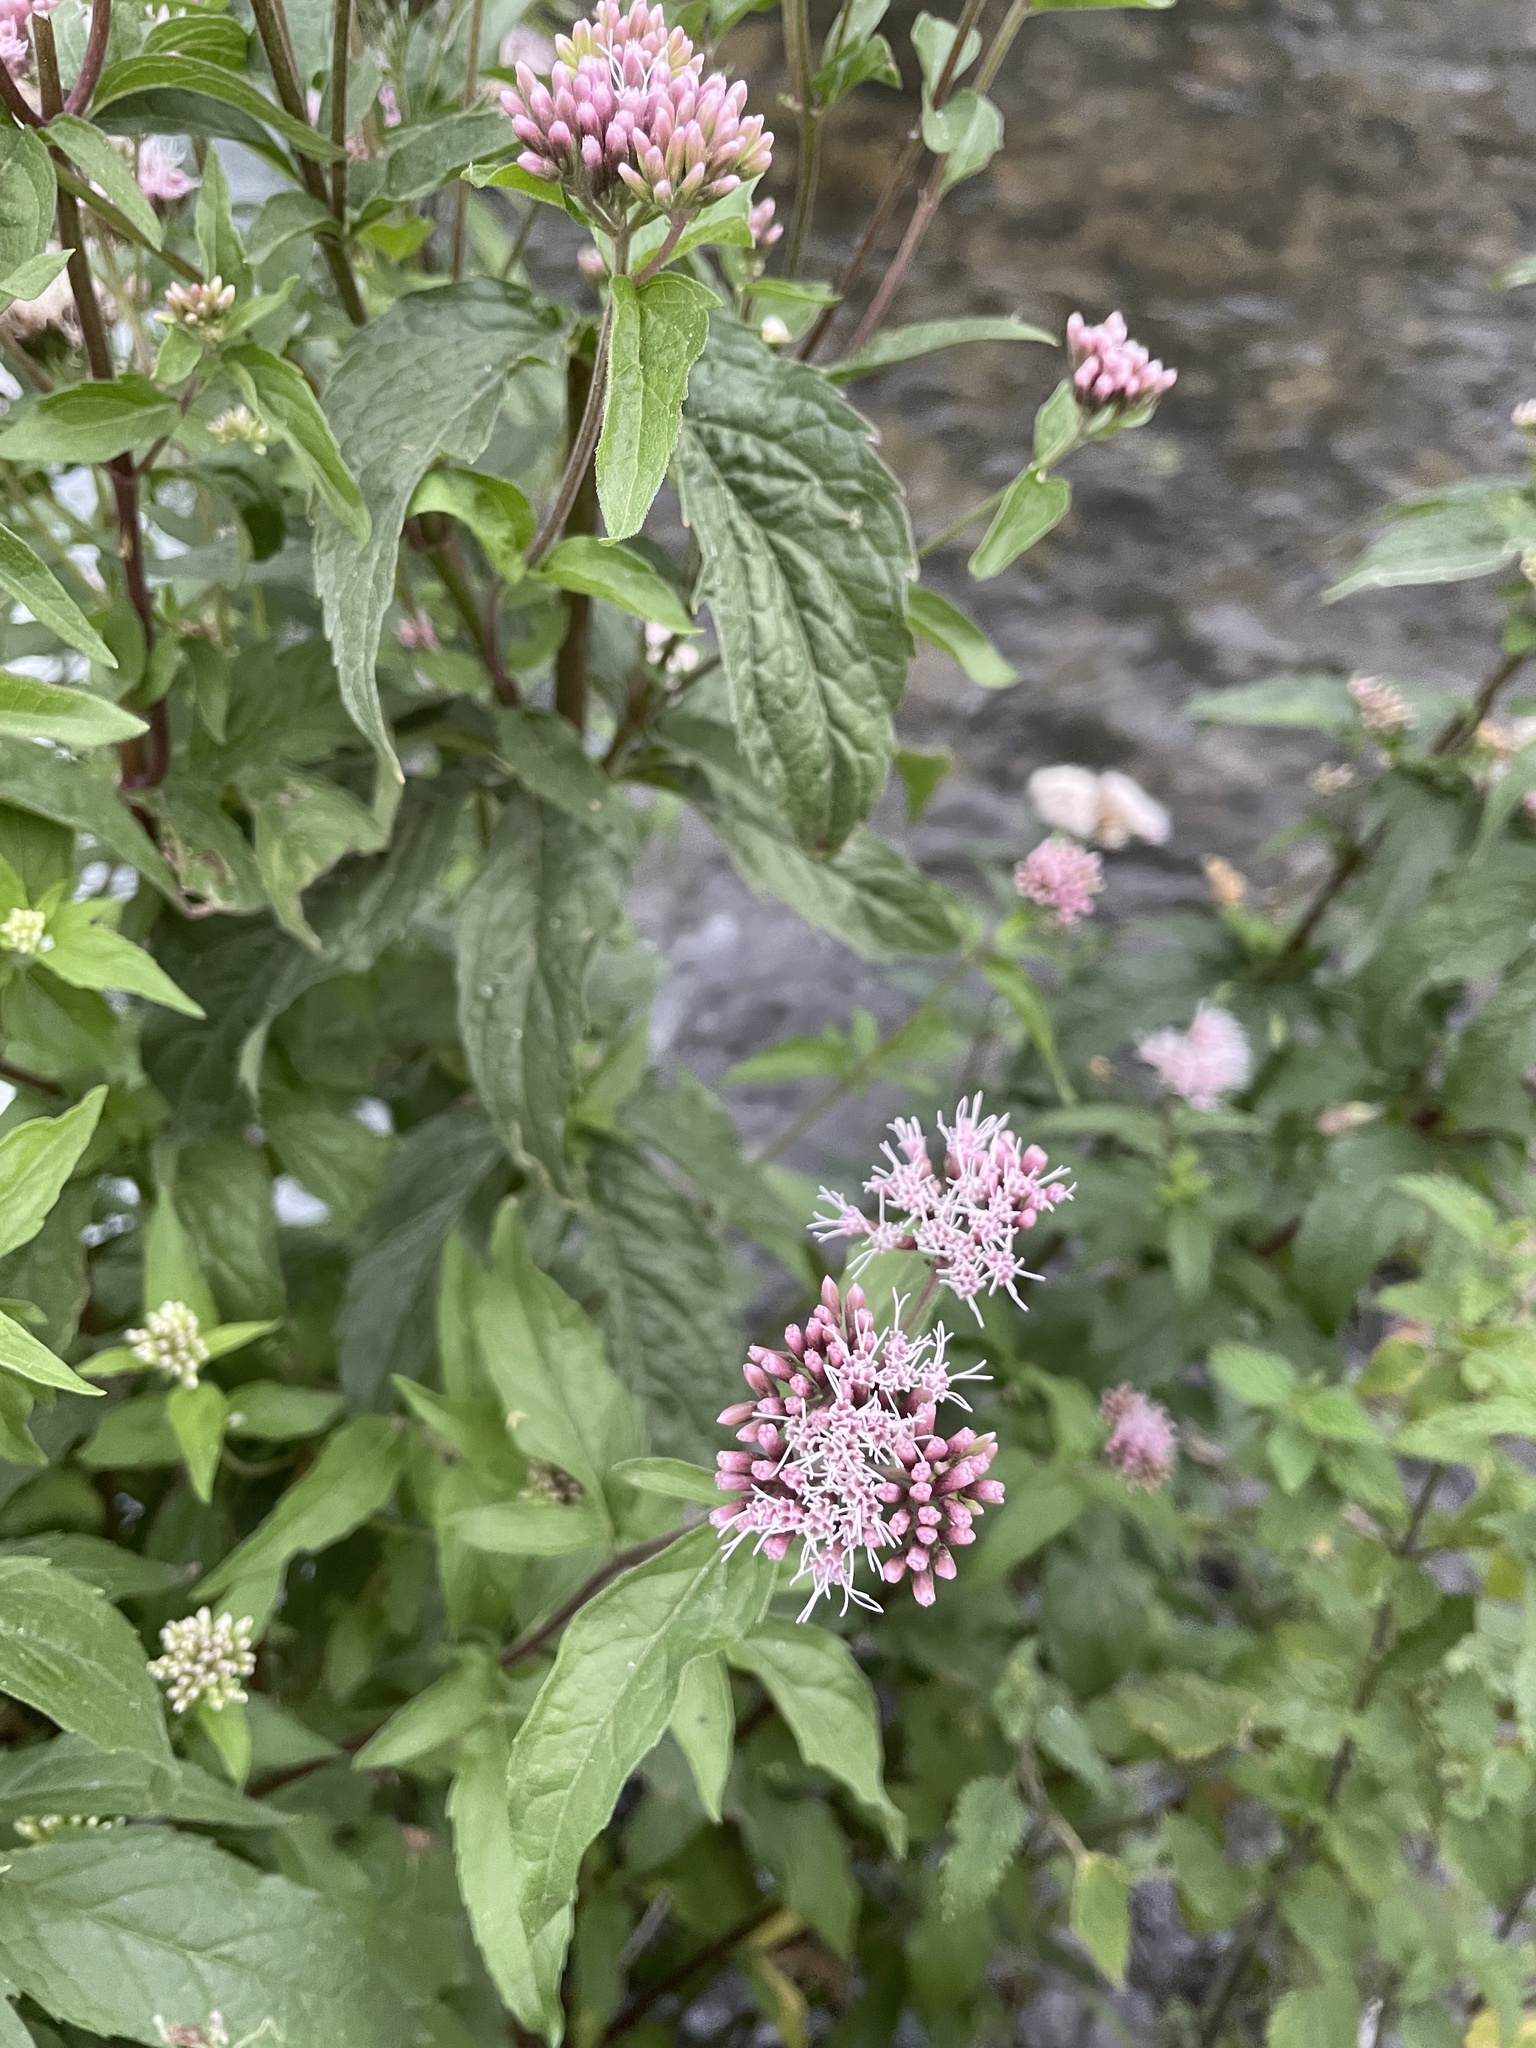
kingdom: Plantae
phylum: Tracheophyta
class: Magnoliopsida
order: Asterales
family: Asteraceae
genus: Eupatorium
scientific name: Eupatorium cannabinum
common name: Hemp-agrimony
